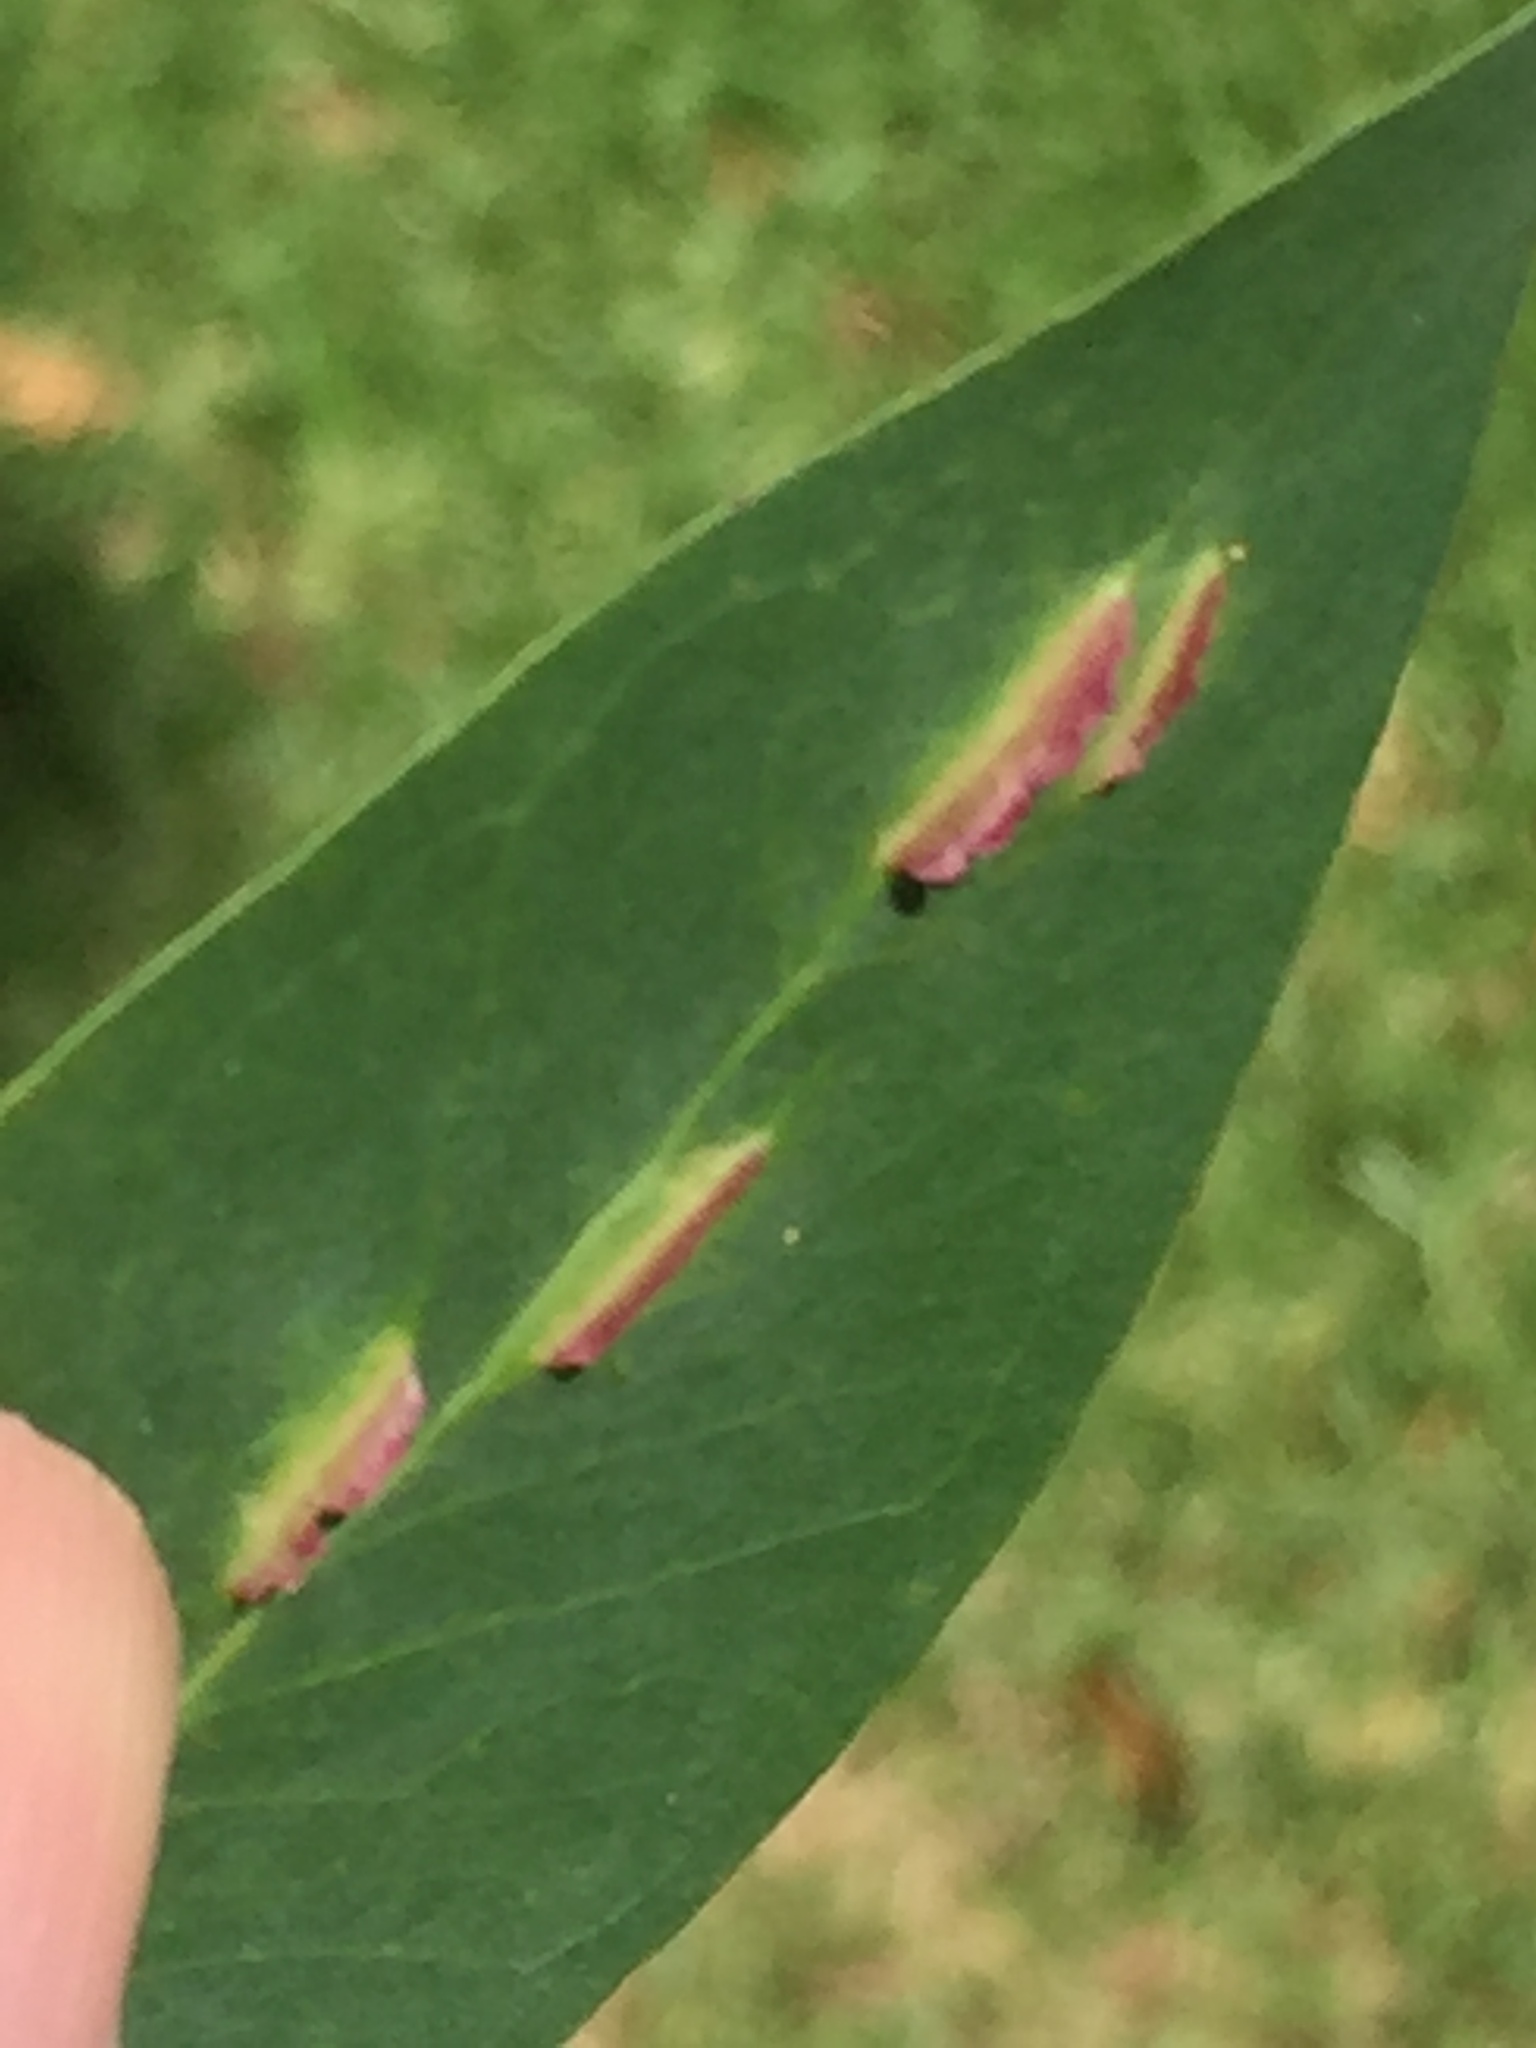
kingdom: Animalia
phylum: Arthropoda
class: Insecta
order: Hymenoptera
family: Pteromalidae
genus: Nambouria
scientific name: Nambouria xanthops
